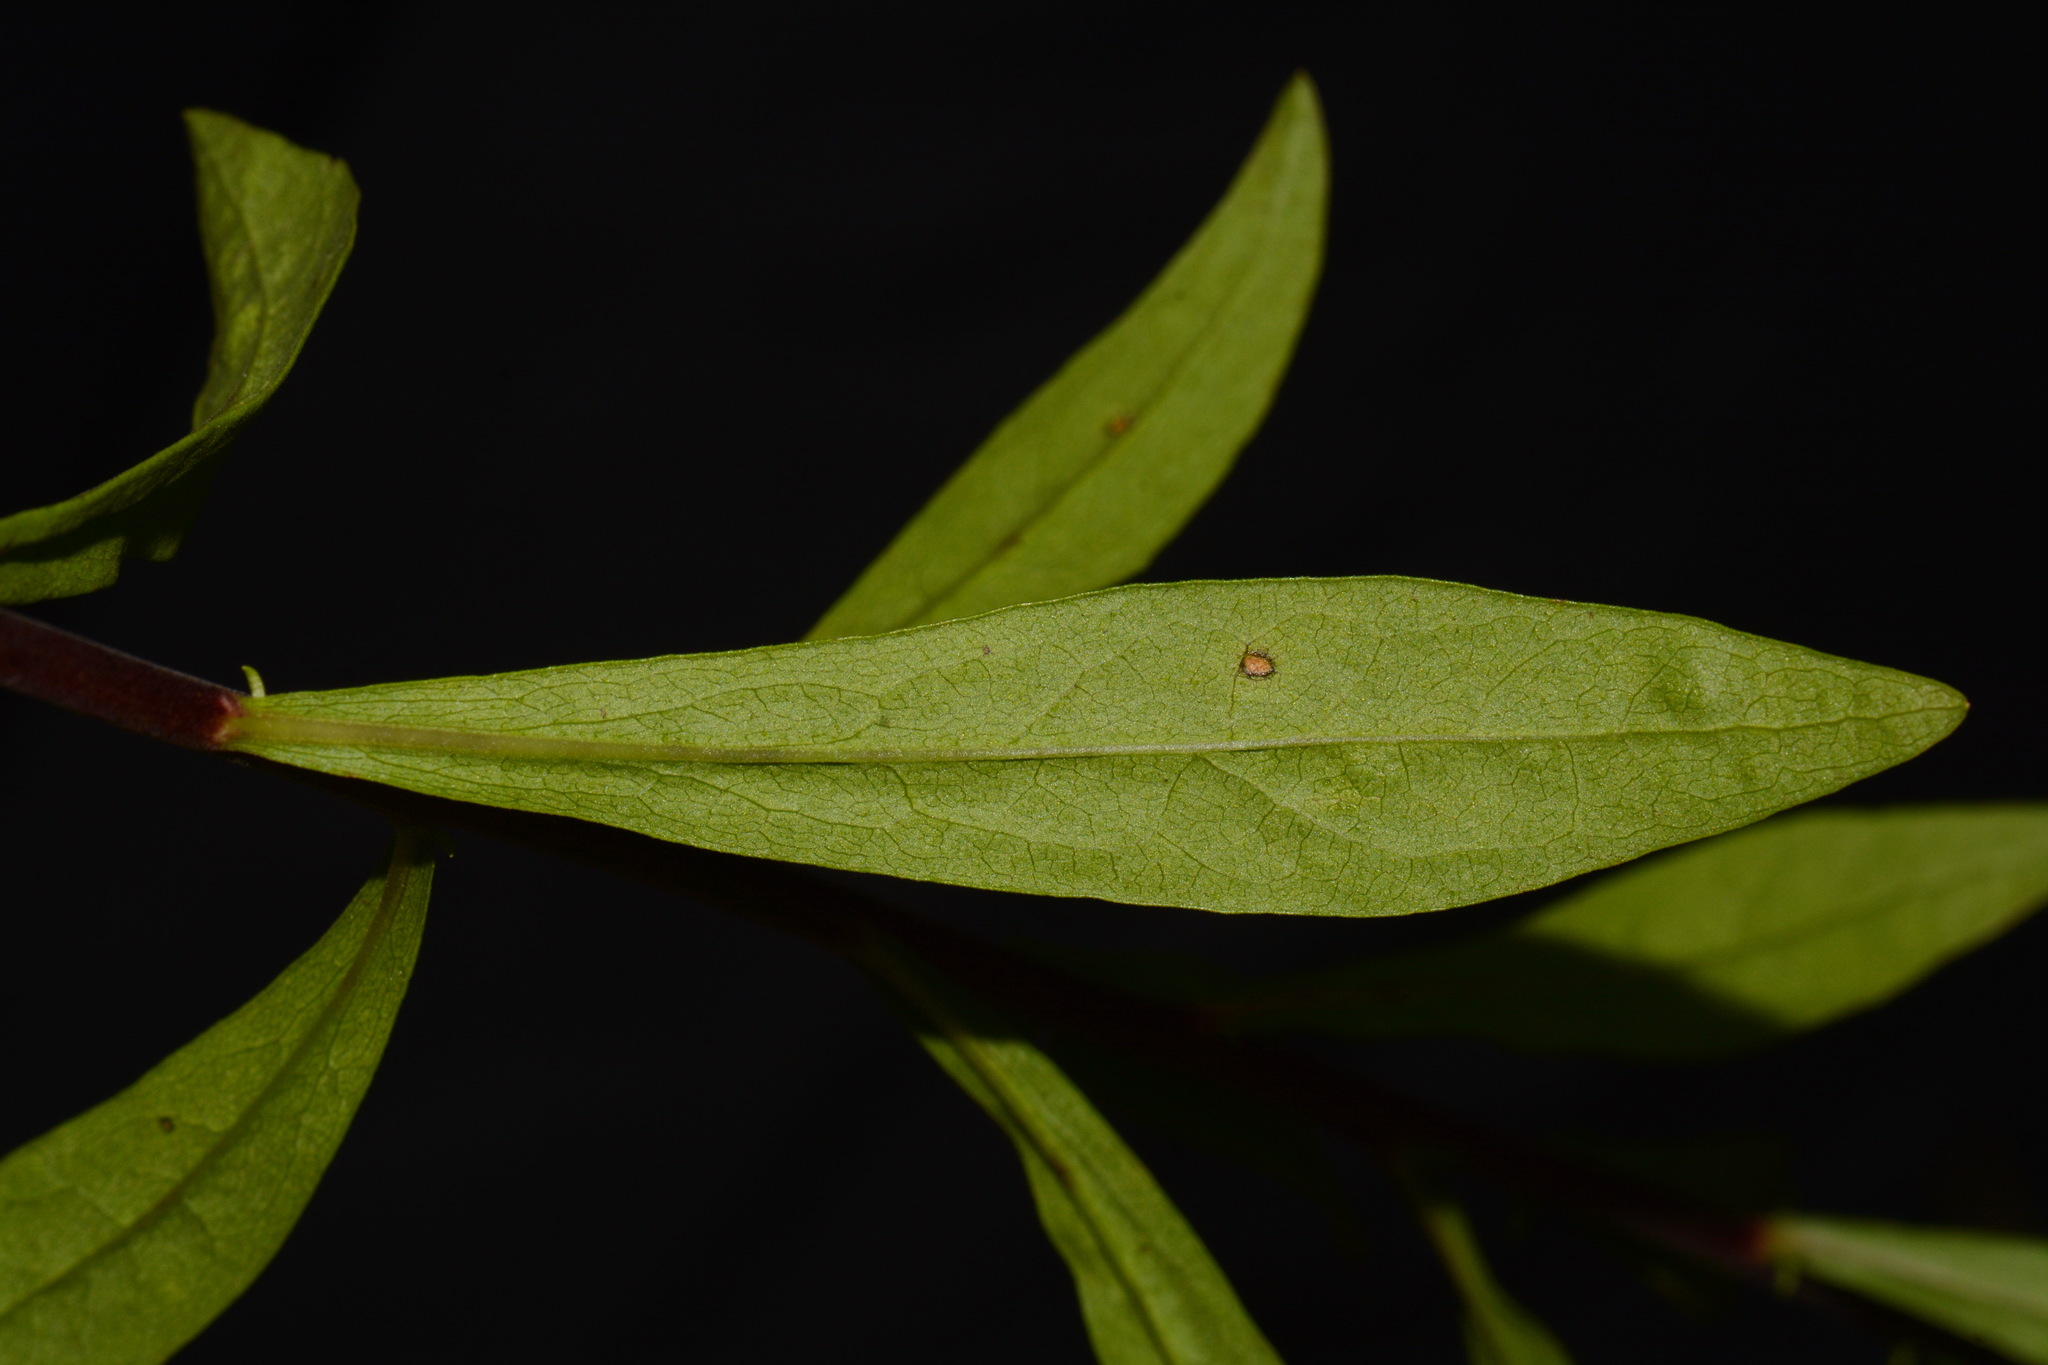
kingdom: Plantae
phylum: Tracheophyta
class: Magnoliopsida
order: Asterales
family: Asteraceae
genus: Solidago
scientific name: Solidago puberula
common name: Downy goldenrod
